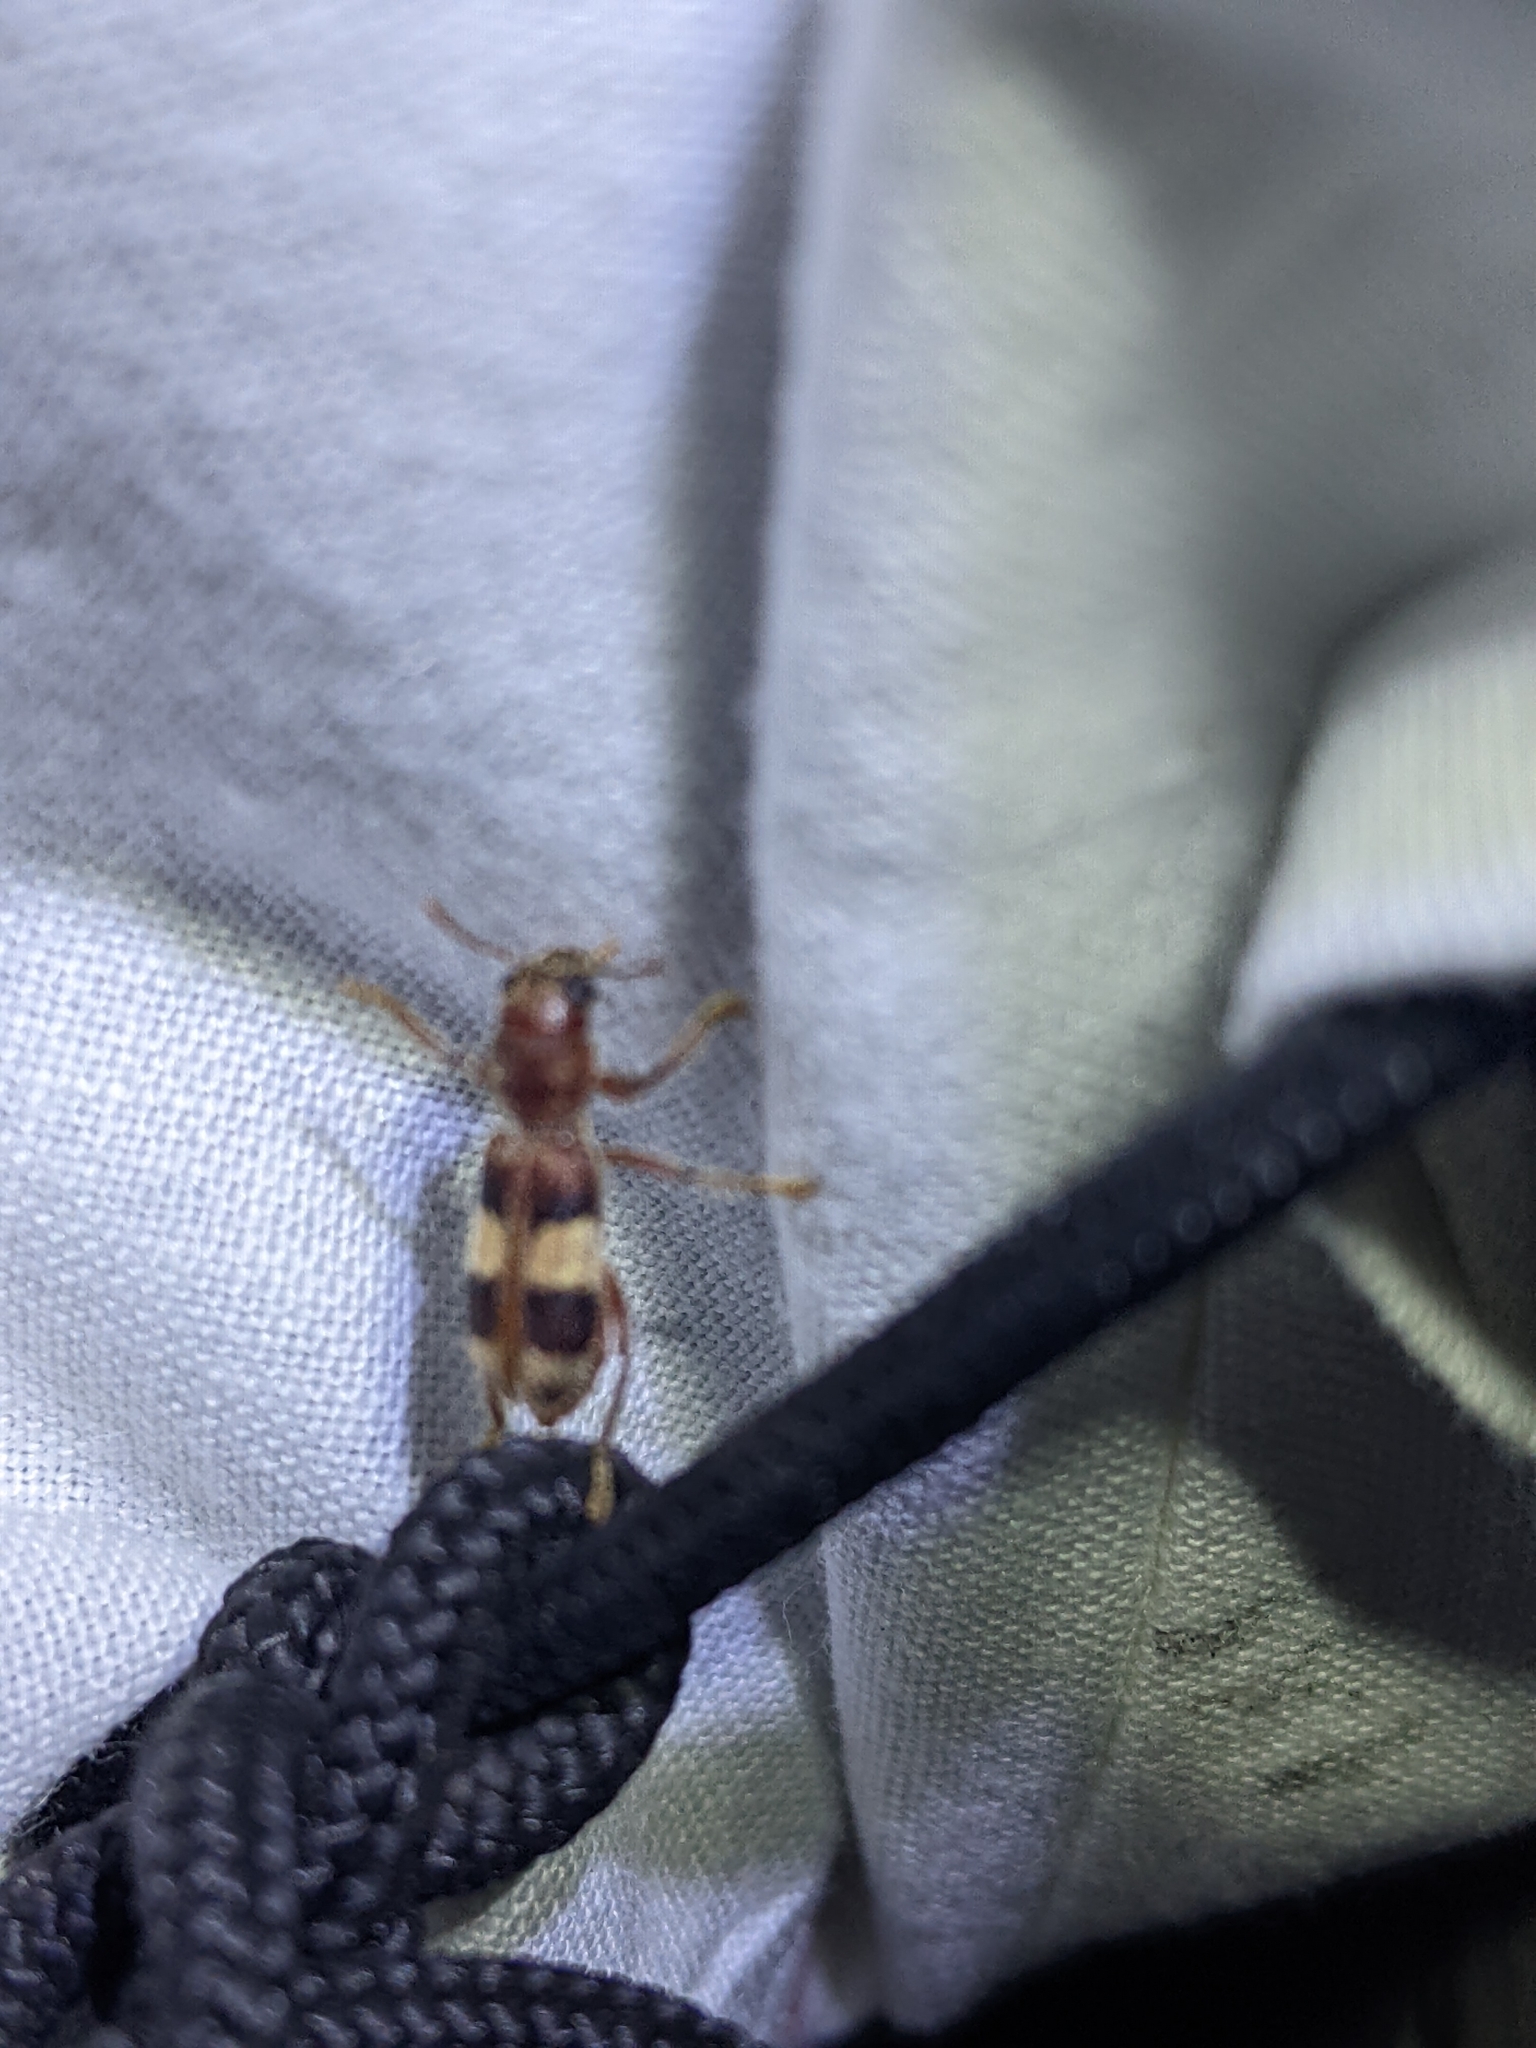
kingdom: Animalia
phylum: Arthropoda
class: Insecta
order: Coleoptera
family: Cleridae
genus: Enoclerus
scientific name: Enoclerus quadrisignatus
